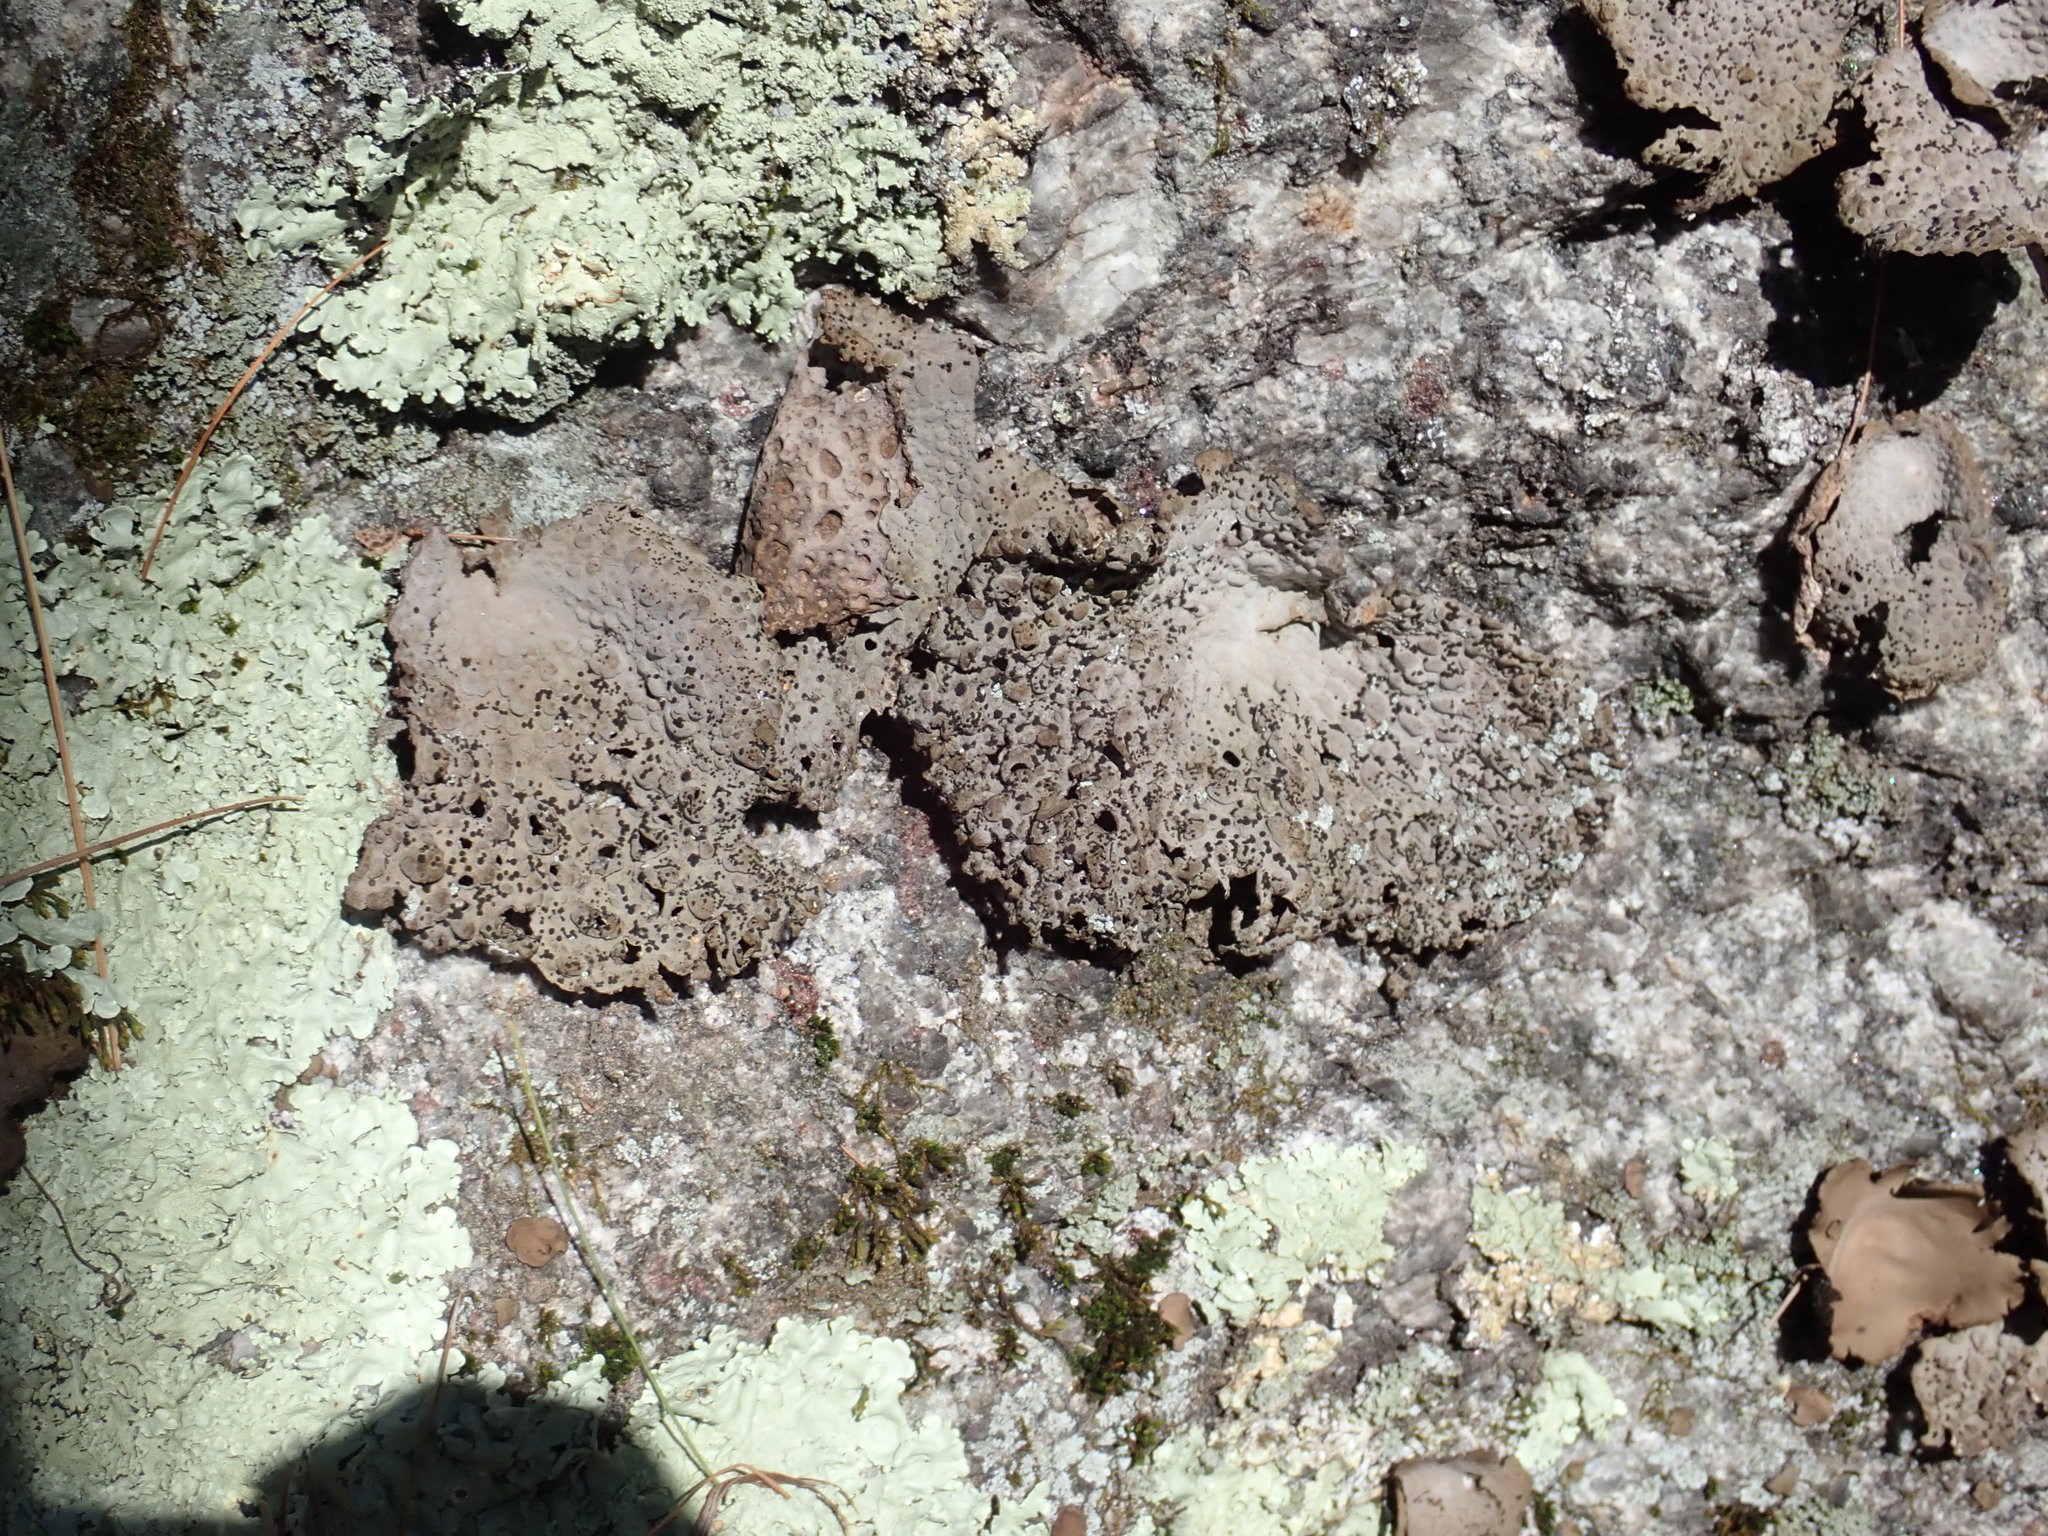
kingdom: Fungi
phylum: Ascomycota
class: Lecanoromycetes
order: Umbilicariales
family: Umbilicariaceae
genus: Lasallia
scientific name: Lasallia papulosa
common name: Common toadskin lichen
